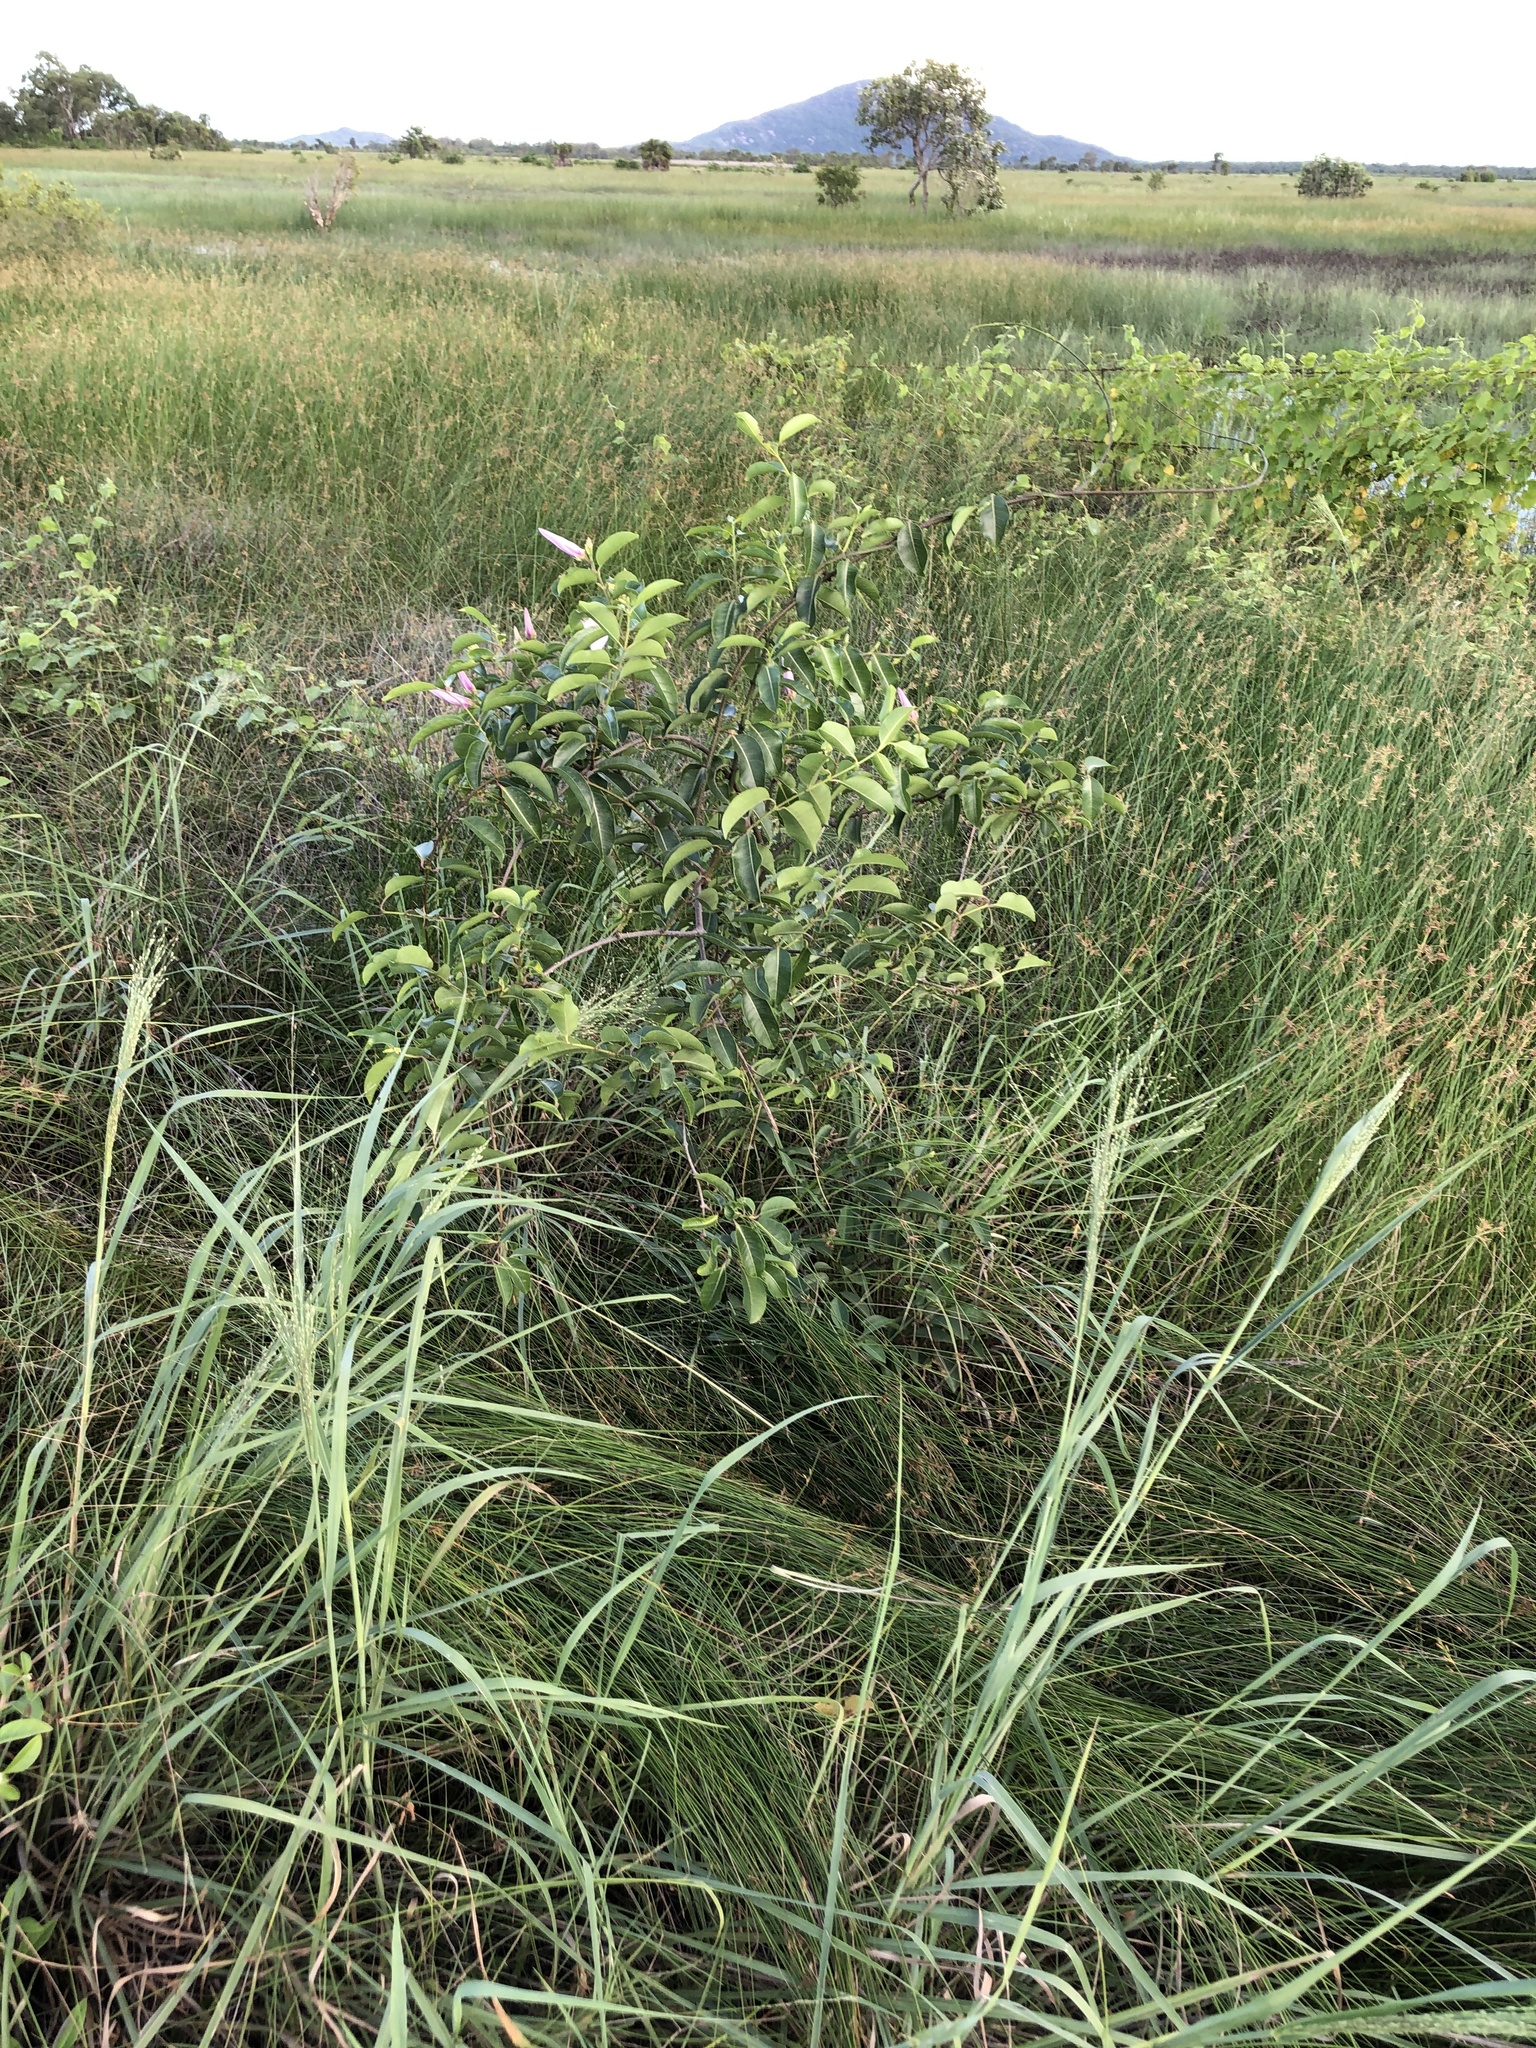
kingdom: Plantae
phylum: Tracheophyta
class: Magnoliopsida
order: Gentianales
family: Apocynaceae
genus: Cryptostegia
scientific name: Cryptostegia grandiflora
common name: Palay rubbervine
